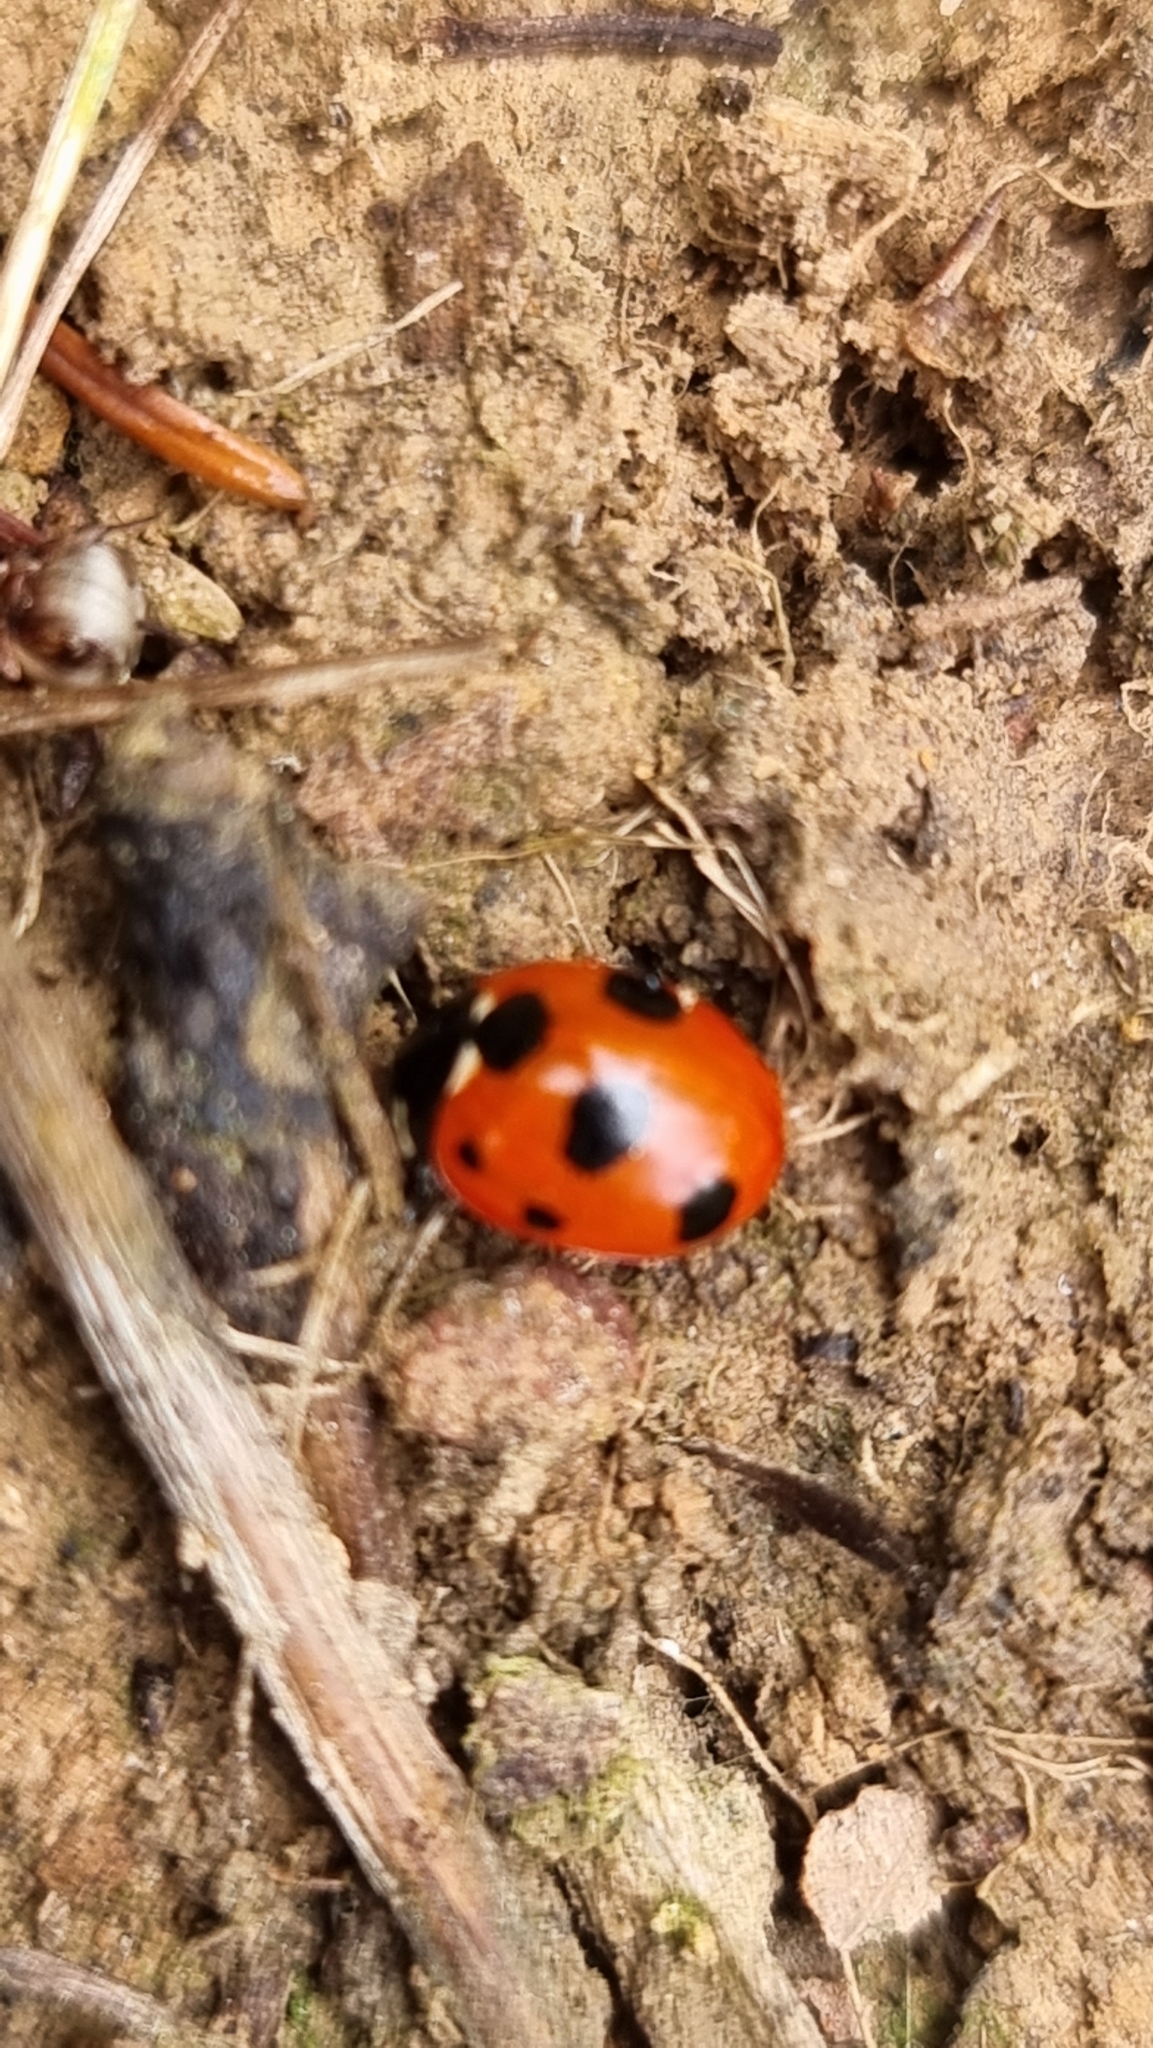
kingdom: Animalia
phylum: Arthropoda
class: Insecta
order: Coleoptera
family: Coccinellidae
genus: Coccinella
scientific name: Coccinella magnifica
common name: Scarce 7-spot ladybird
